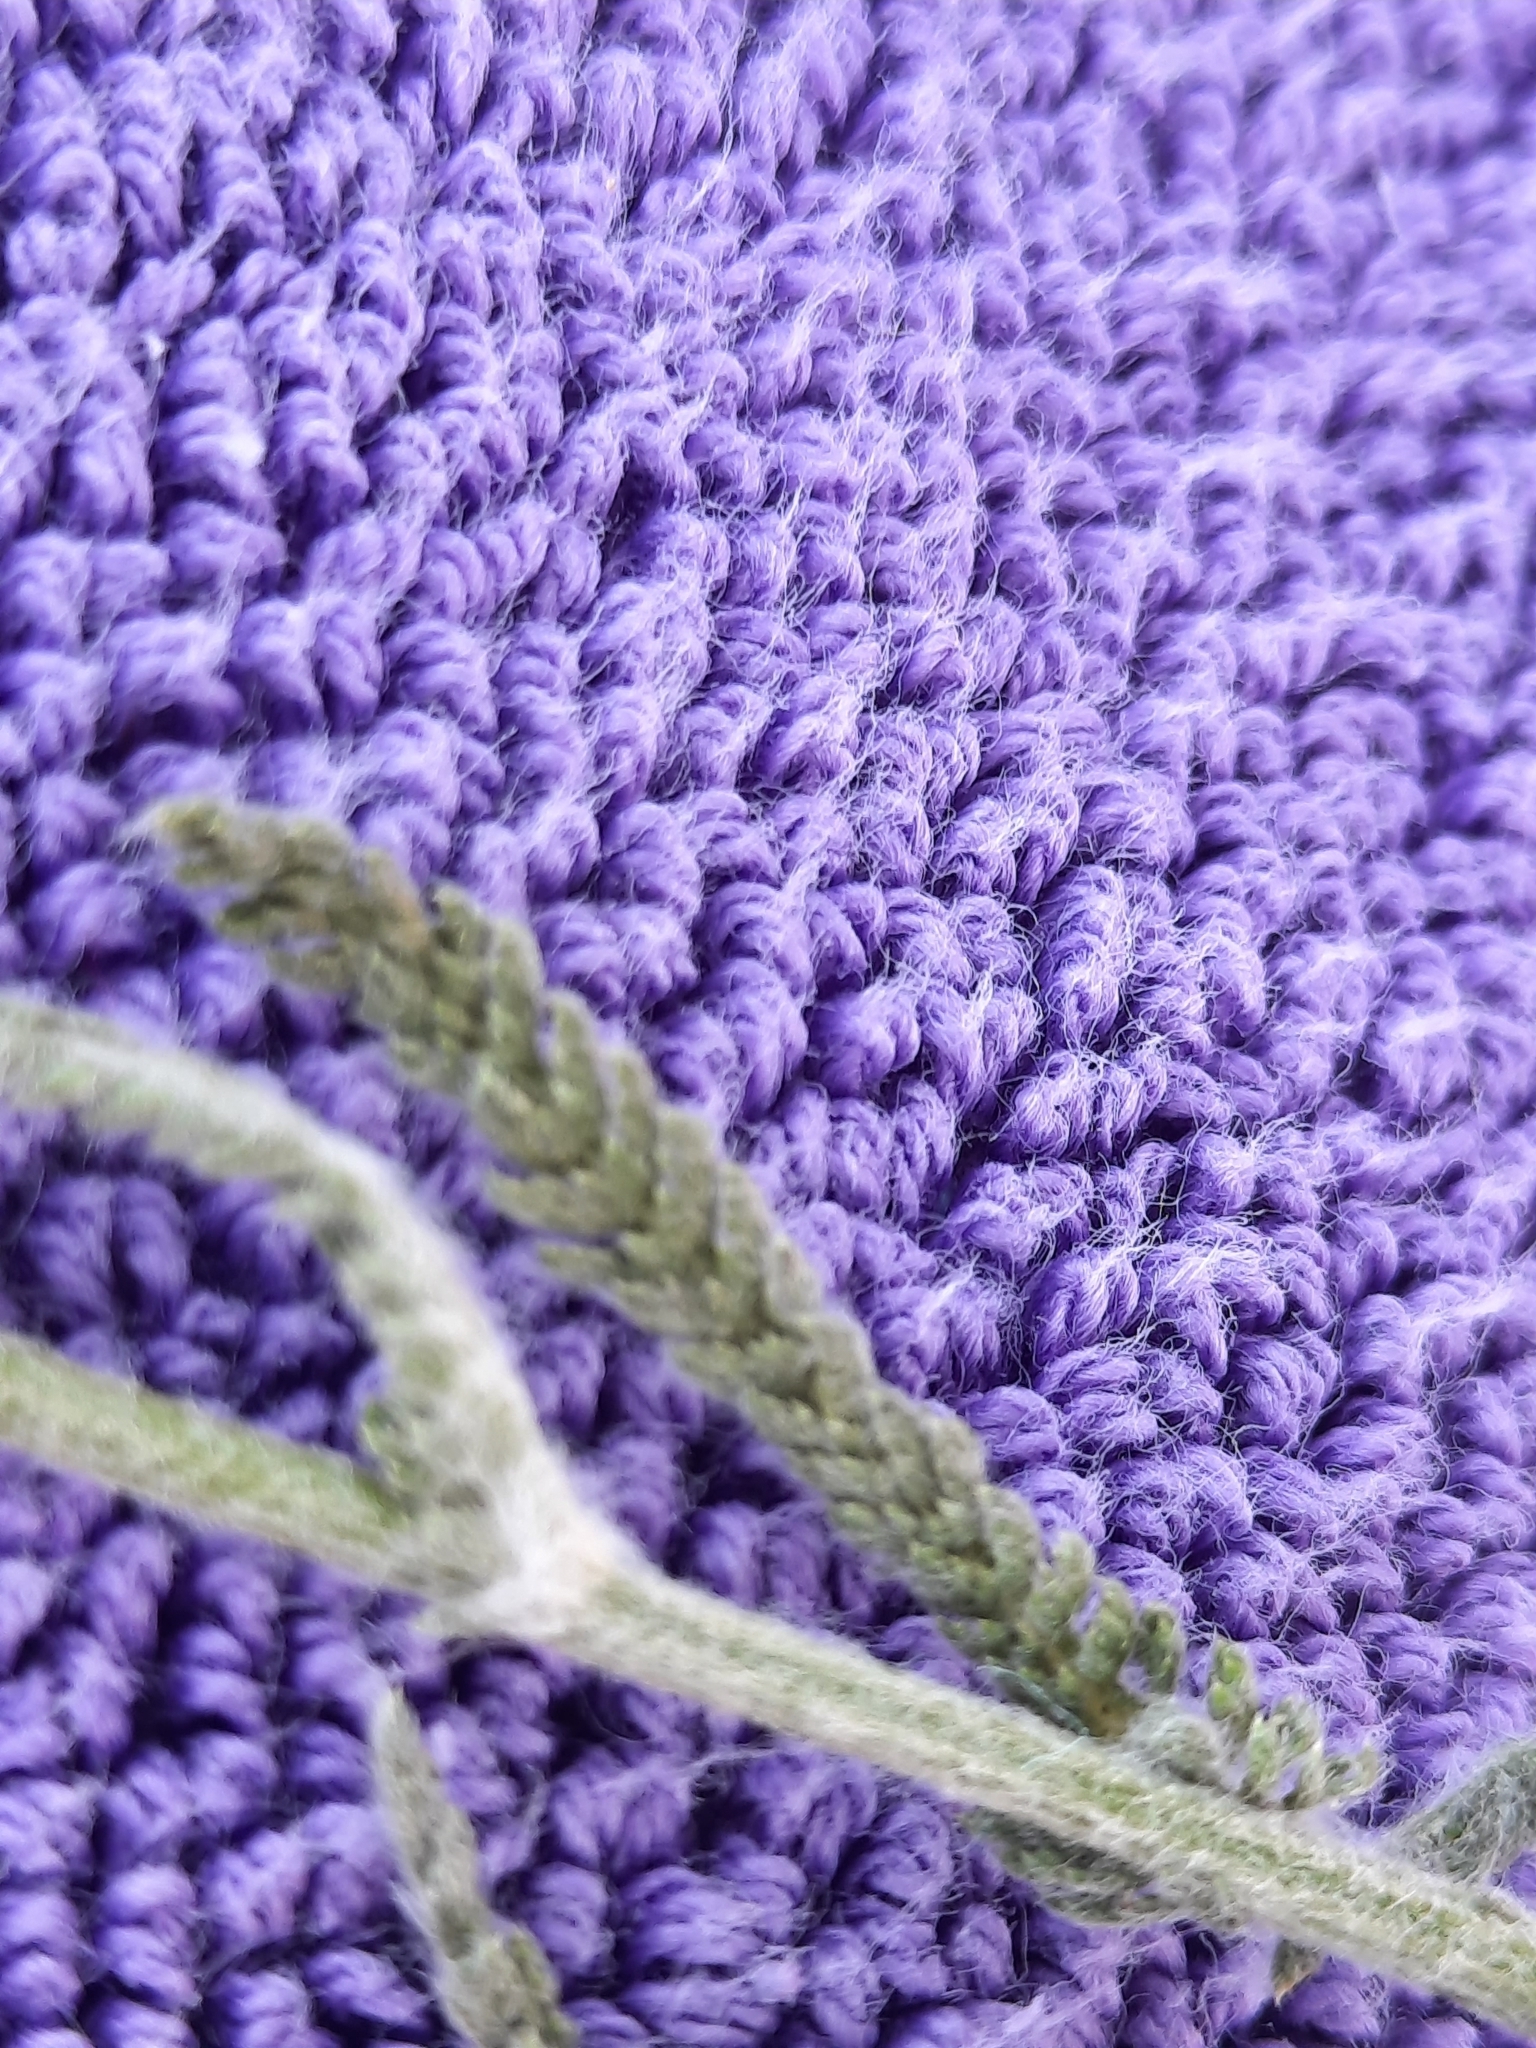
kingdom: Plantae
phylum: Tracheophyta
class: Magnoliopsida
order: Asterales
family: Asteraceae
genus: Achillea
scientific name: Achillea millefolium
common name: Yarrow
